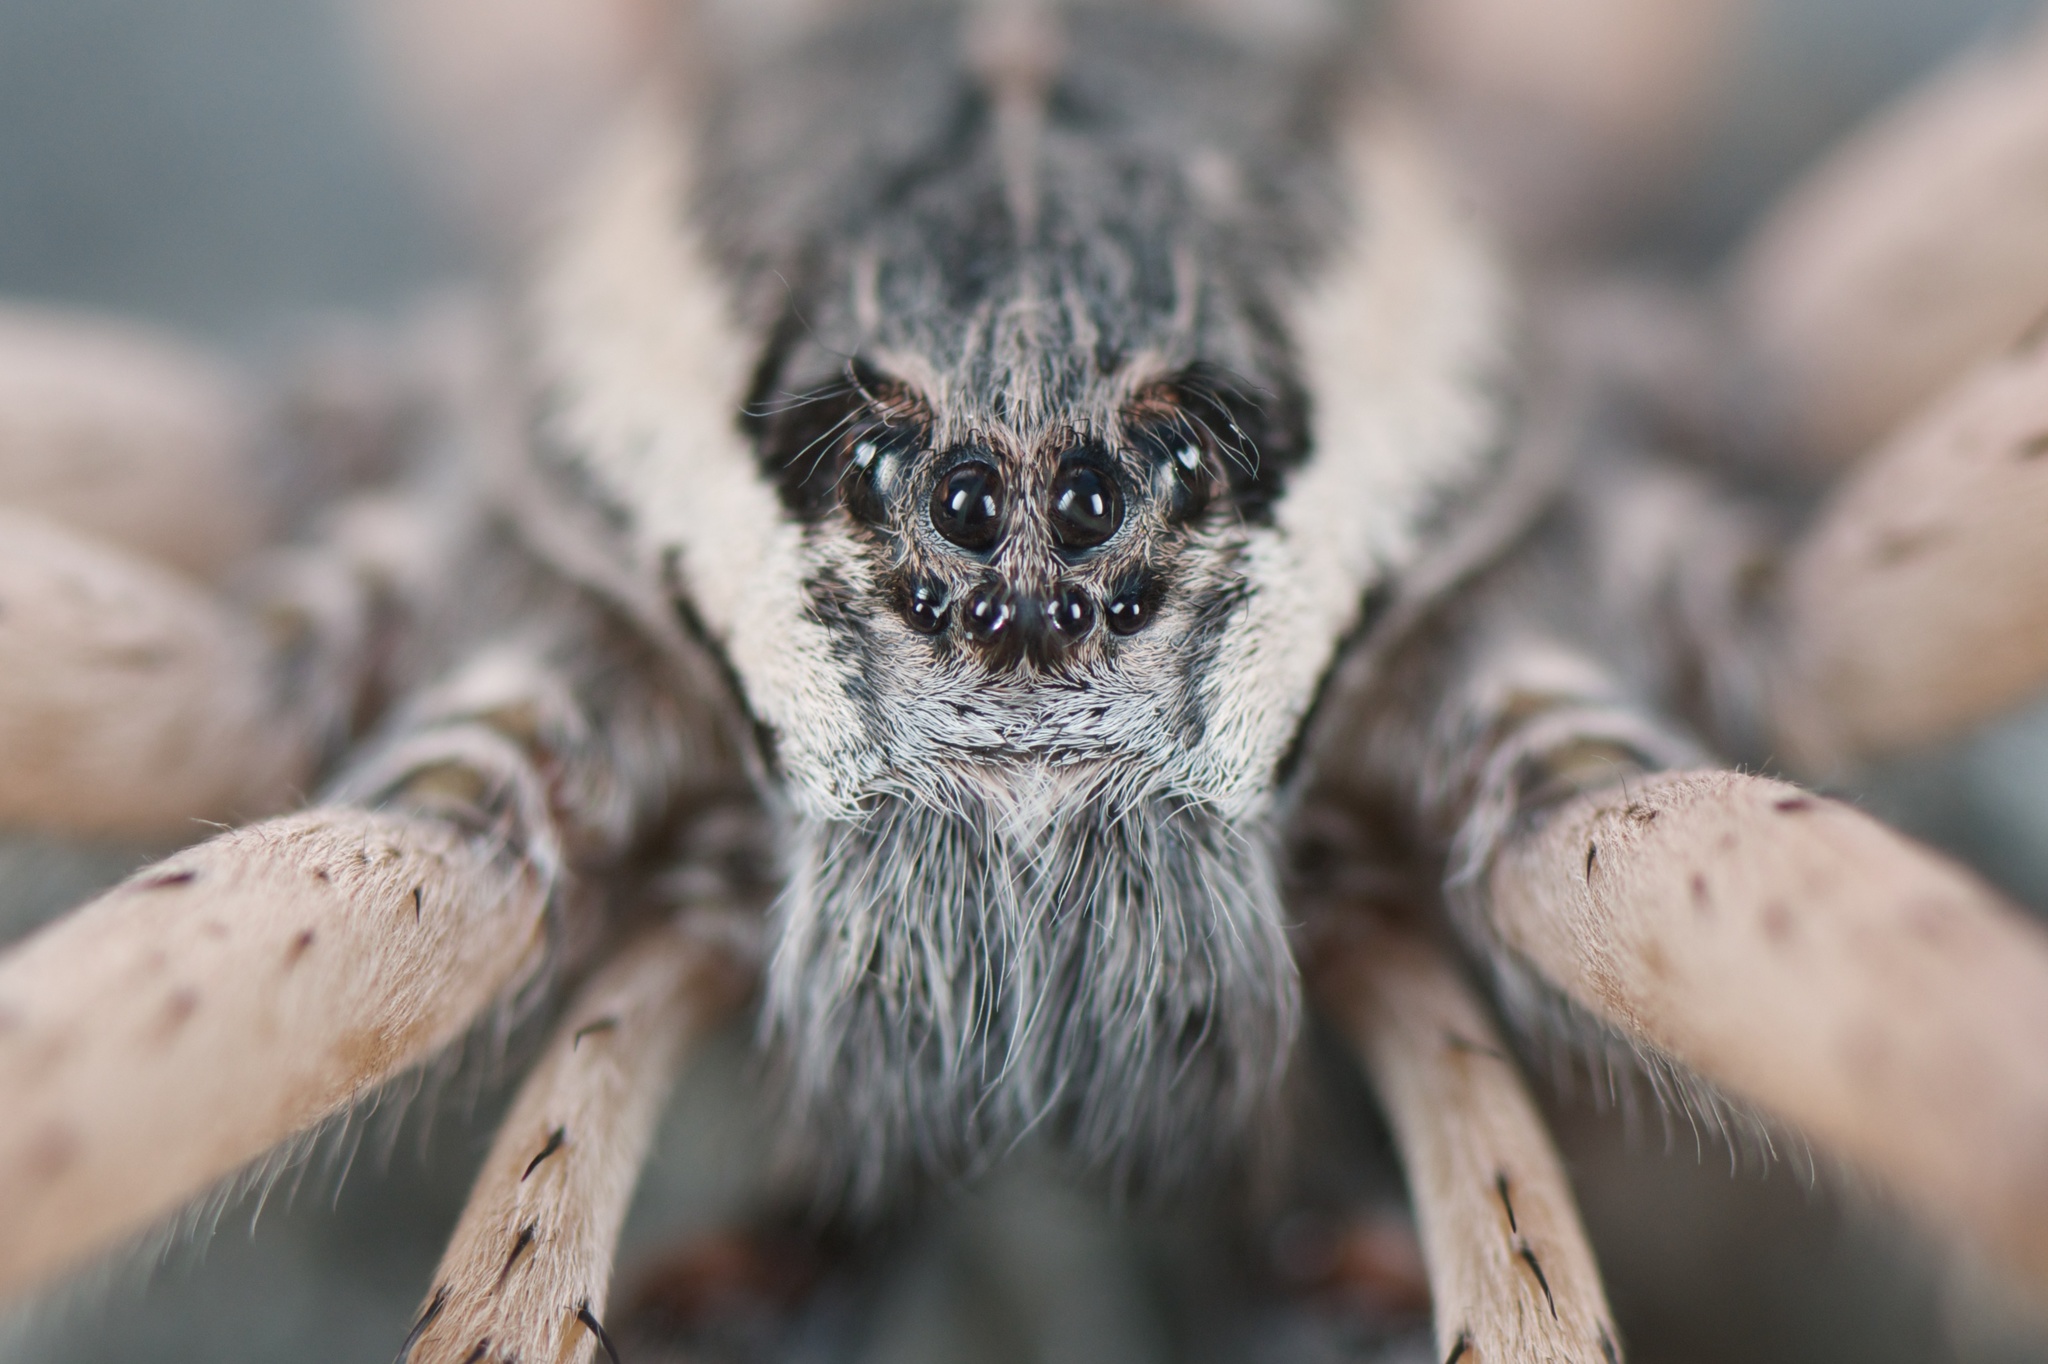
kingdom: Animalia
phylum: Arthropoda
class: Arachnida
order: Araneae
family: Pisauridae
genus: Dolomedes
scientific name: Dolomedes aquaticus
